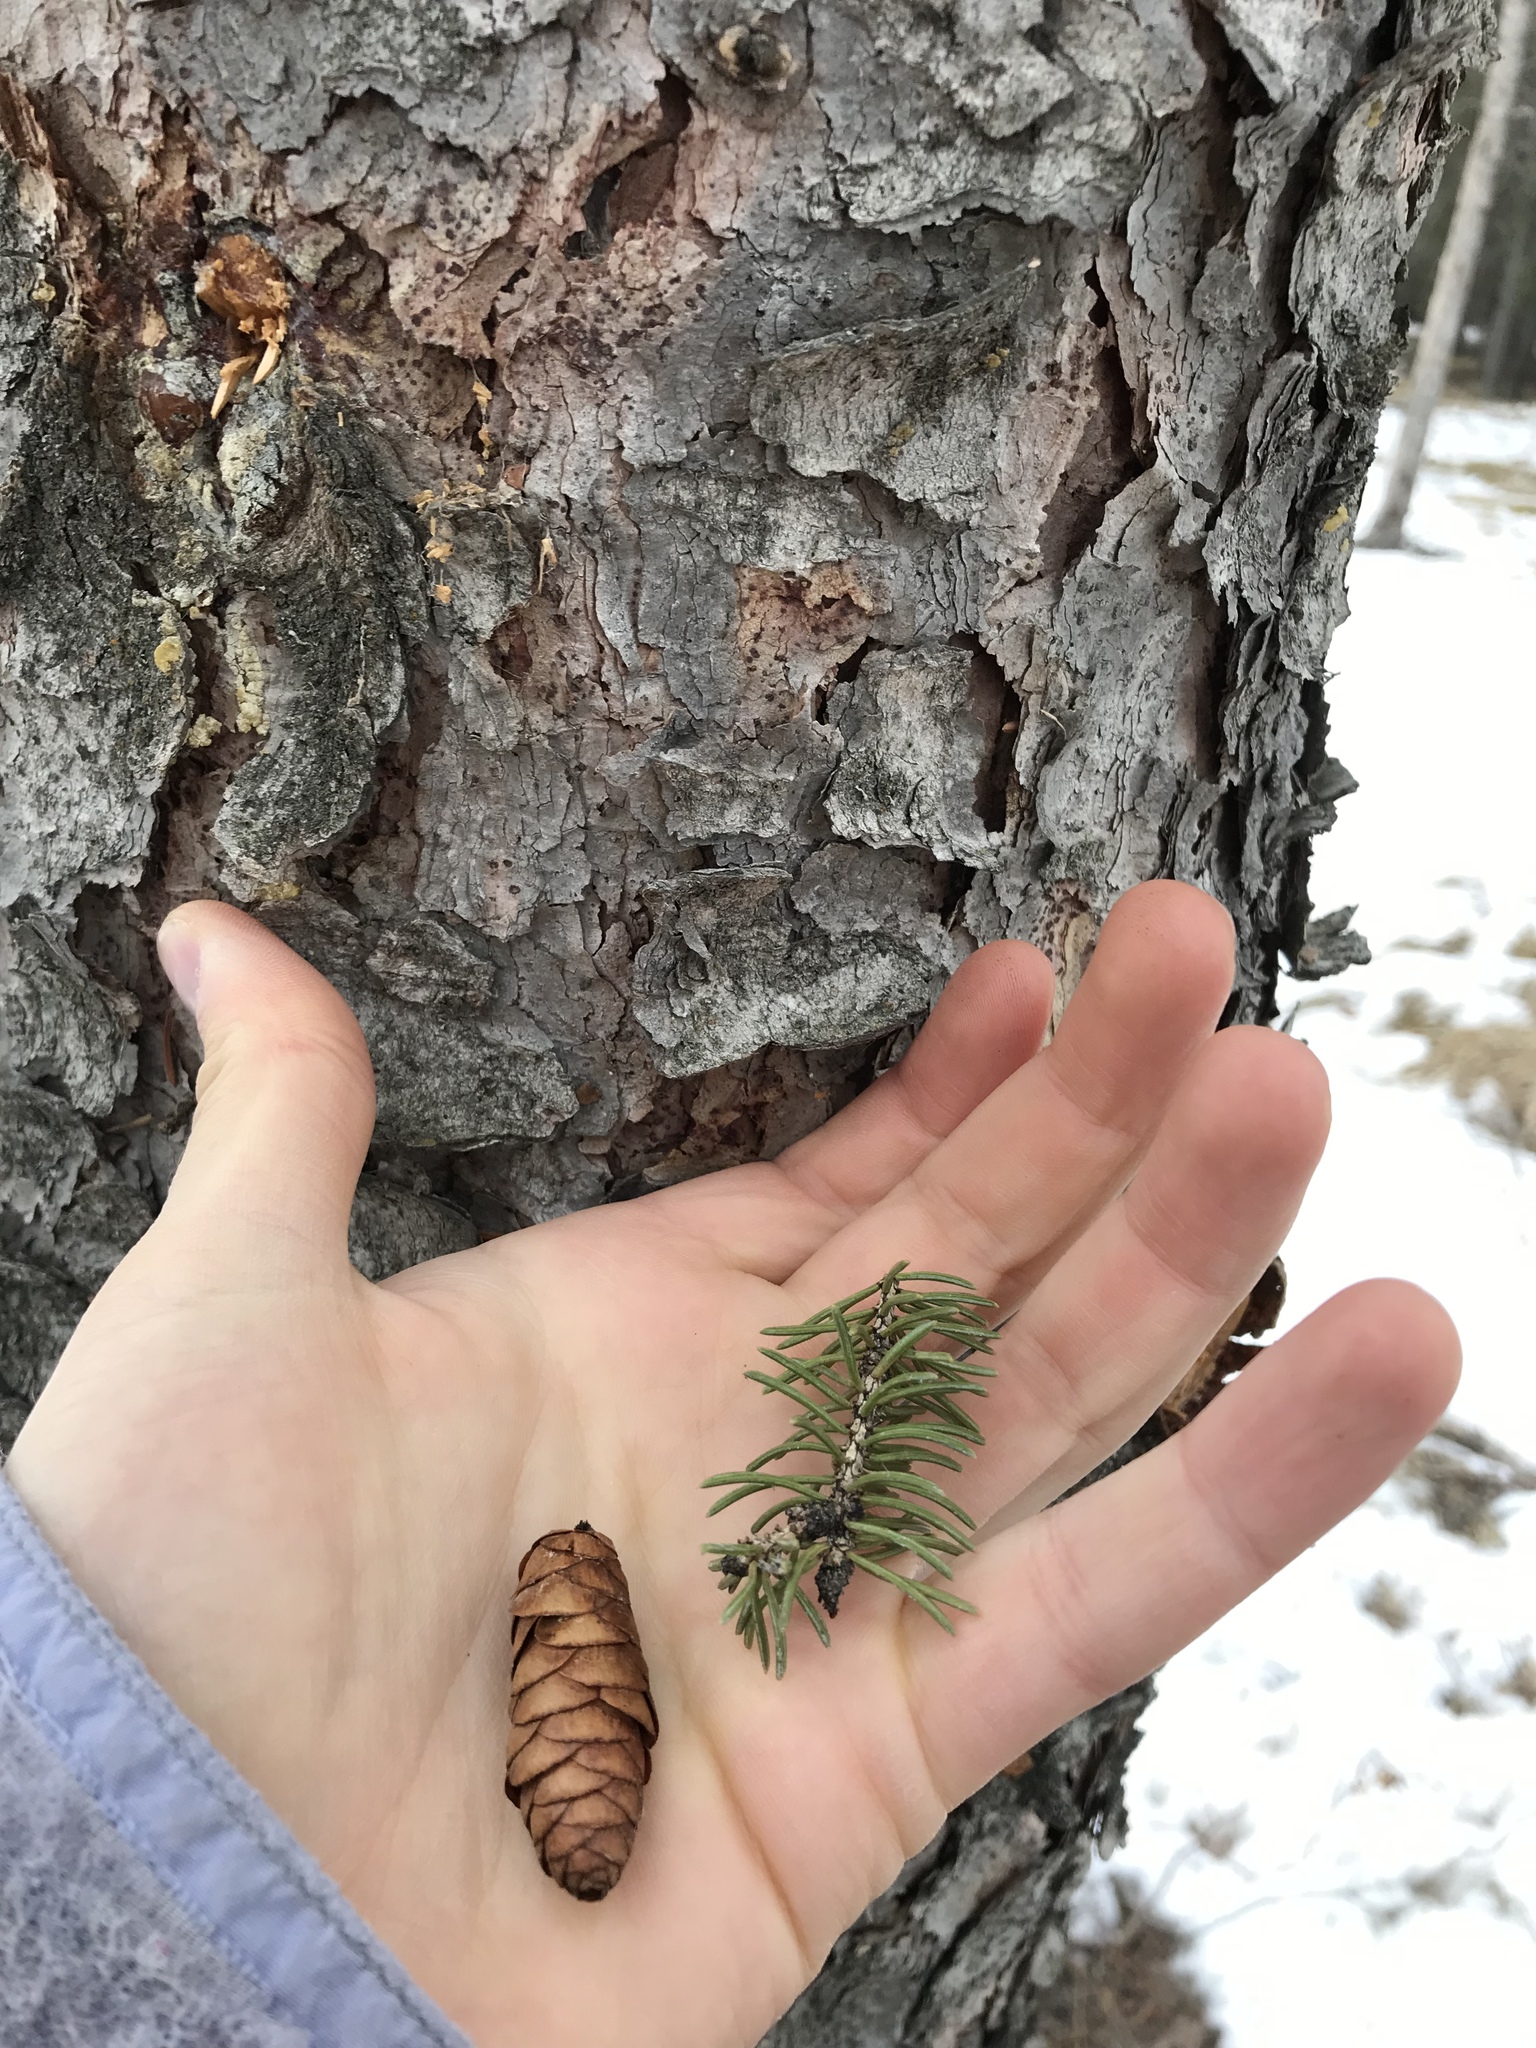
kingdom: Plantae
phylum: Tracheophyta
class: Pinopsida
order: Pinales
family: Pinaceae
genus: Picea
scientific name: Picea glauca
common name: White spruce
